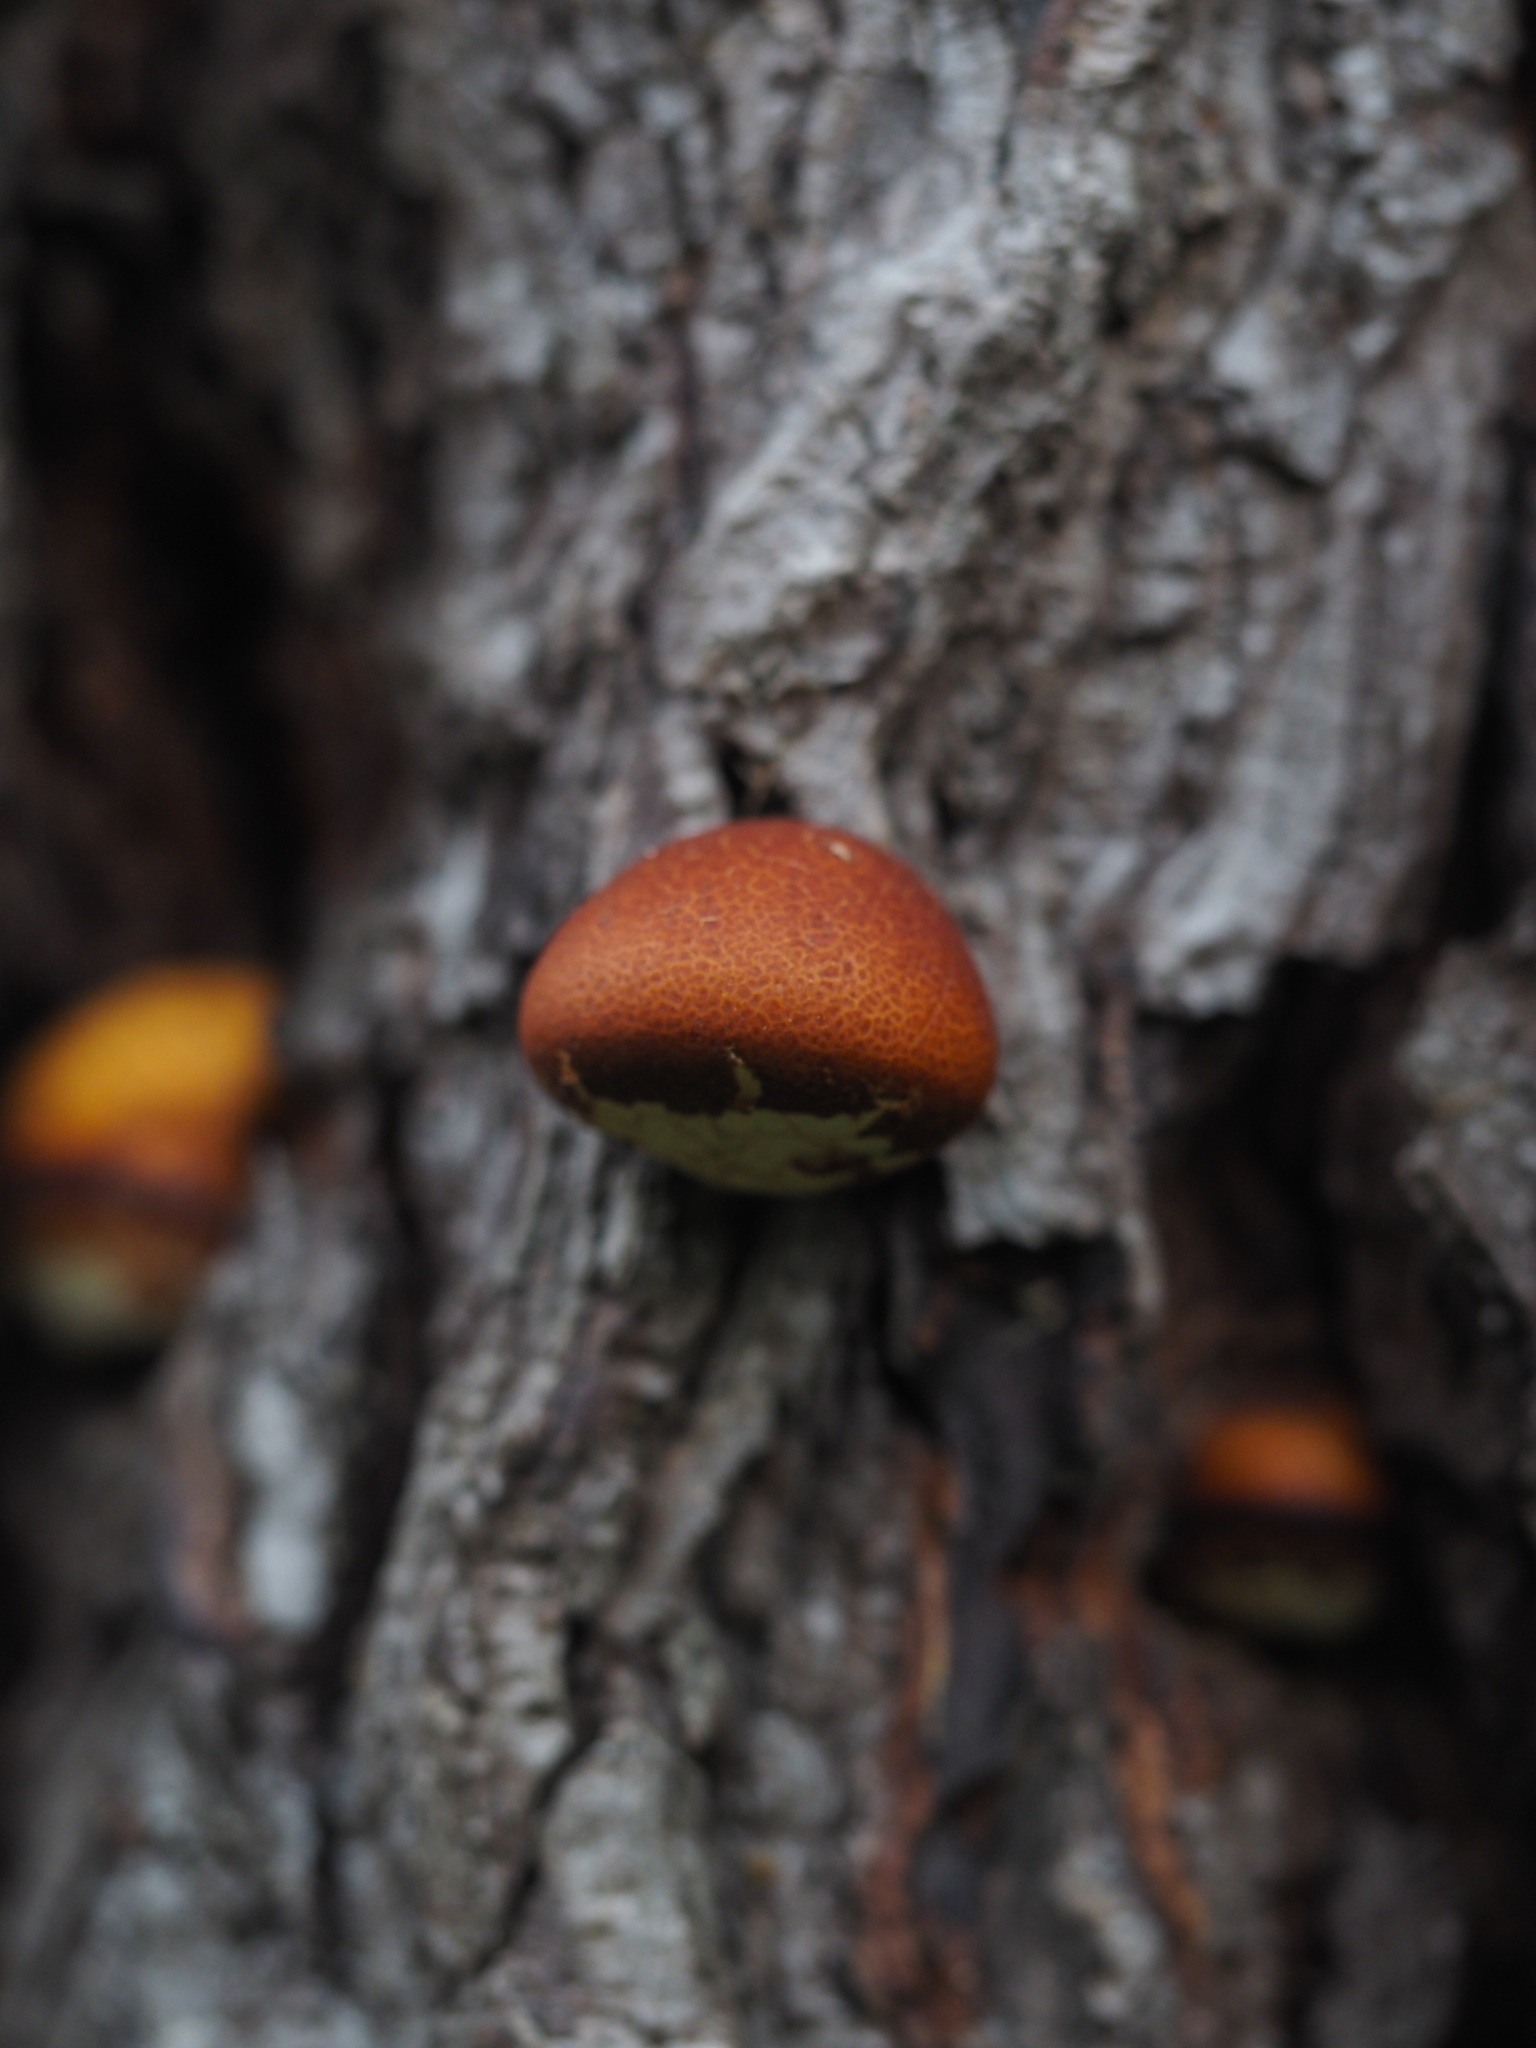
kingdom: Fungi
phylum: Basidiomycota
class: Agaricomycetes
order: Polyporales
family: Polyporaceae
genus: Cryptoporus
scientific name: Cryptoporus volvatus
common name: Veiled polypore
